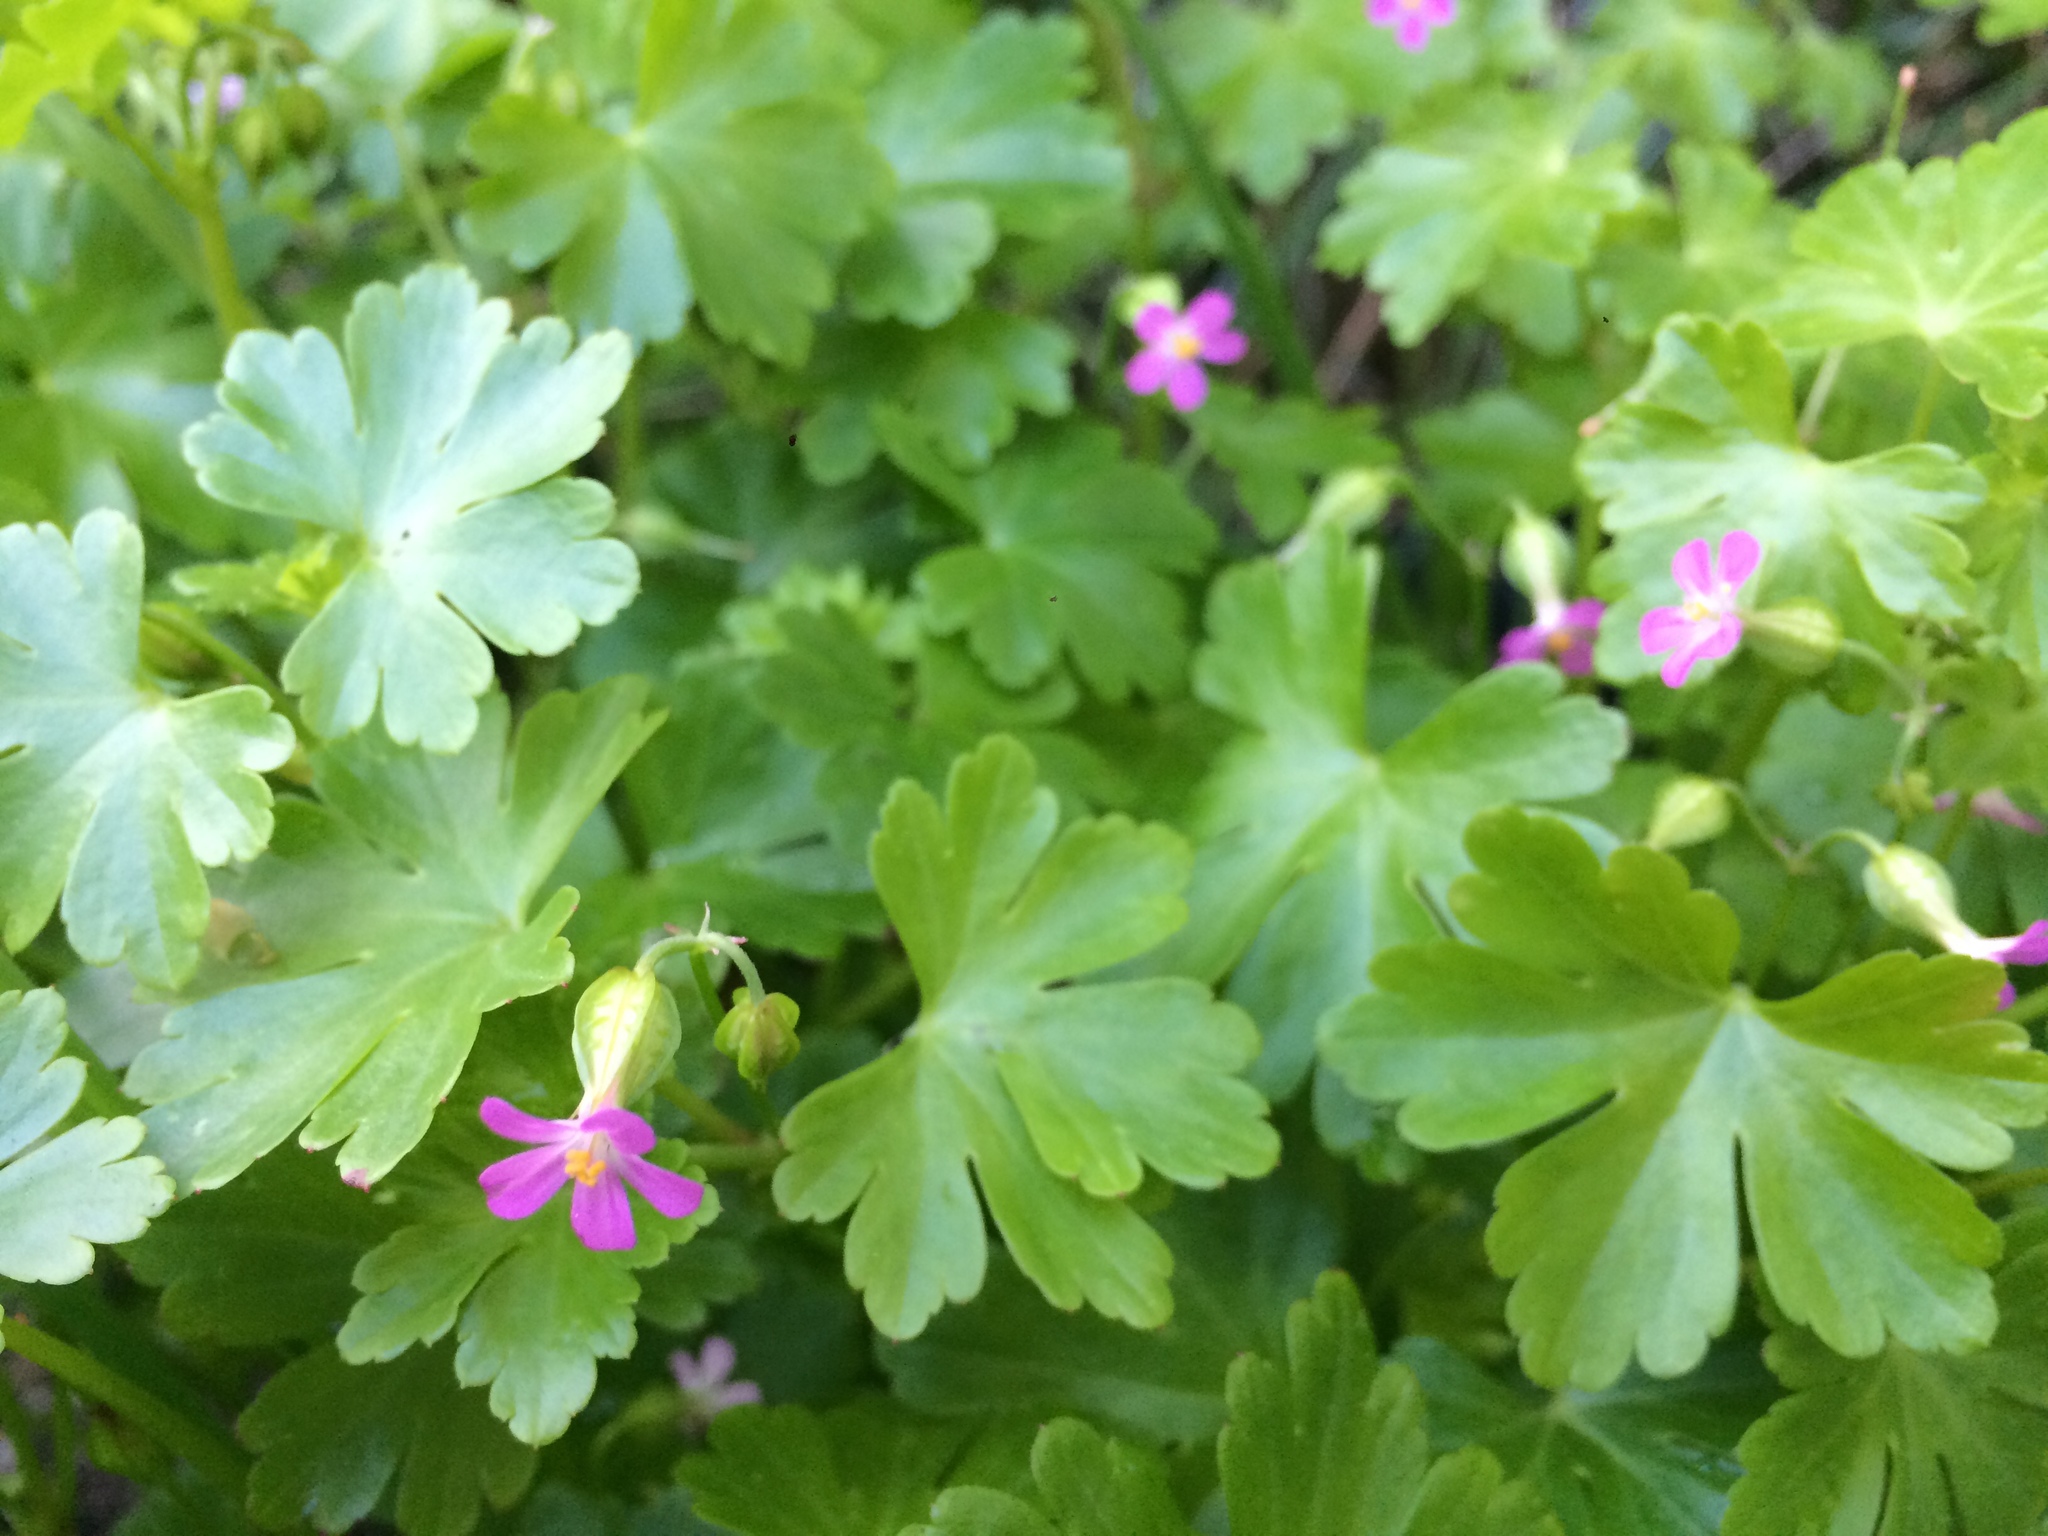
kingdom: Plantae
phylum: Tracheophyta
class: Magnoliopsida
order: Geraniales
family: Geraniaceae
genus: Geranium
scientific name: Geranium lucidum
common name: Shining crane's-bill
